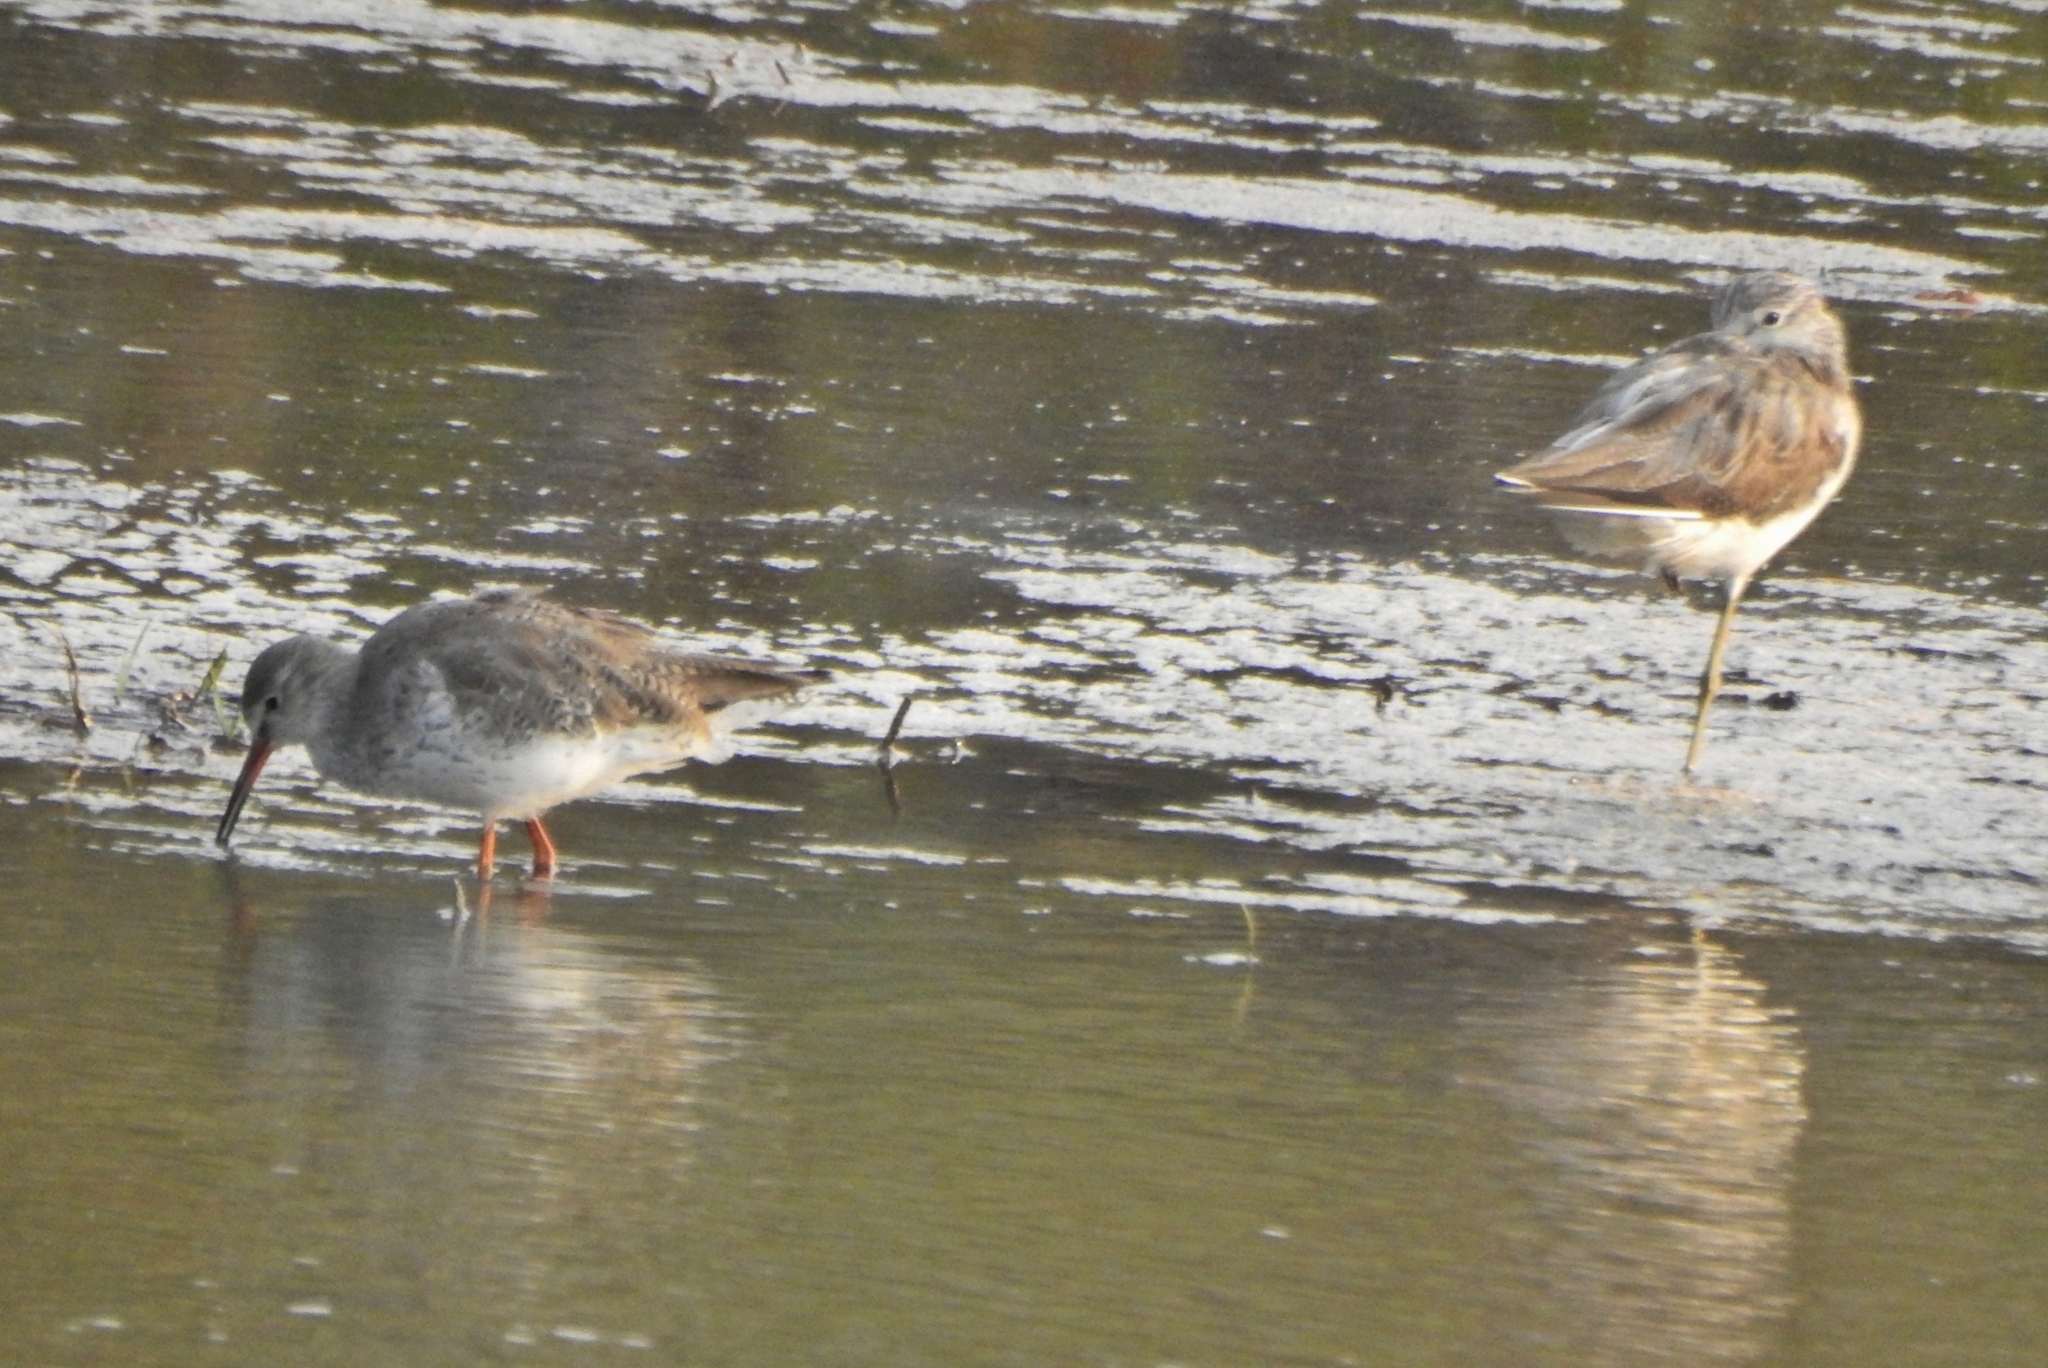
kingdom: Animalia
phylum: Chordata
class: Aves
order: Charadriiformes
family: Scolopacidae
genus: Tringa
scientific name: Tringa nebularia
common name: Common greenshank
